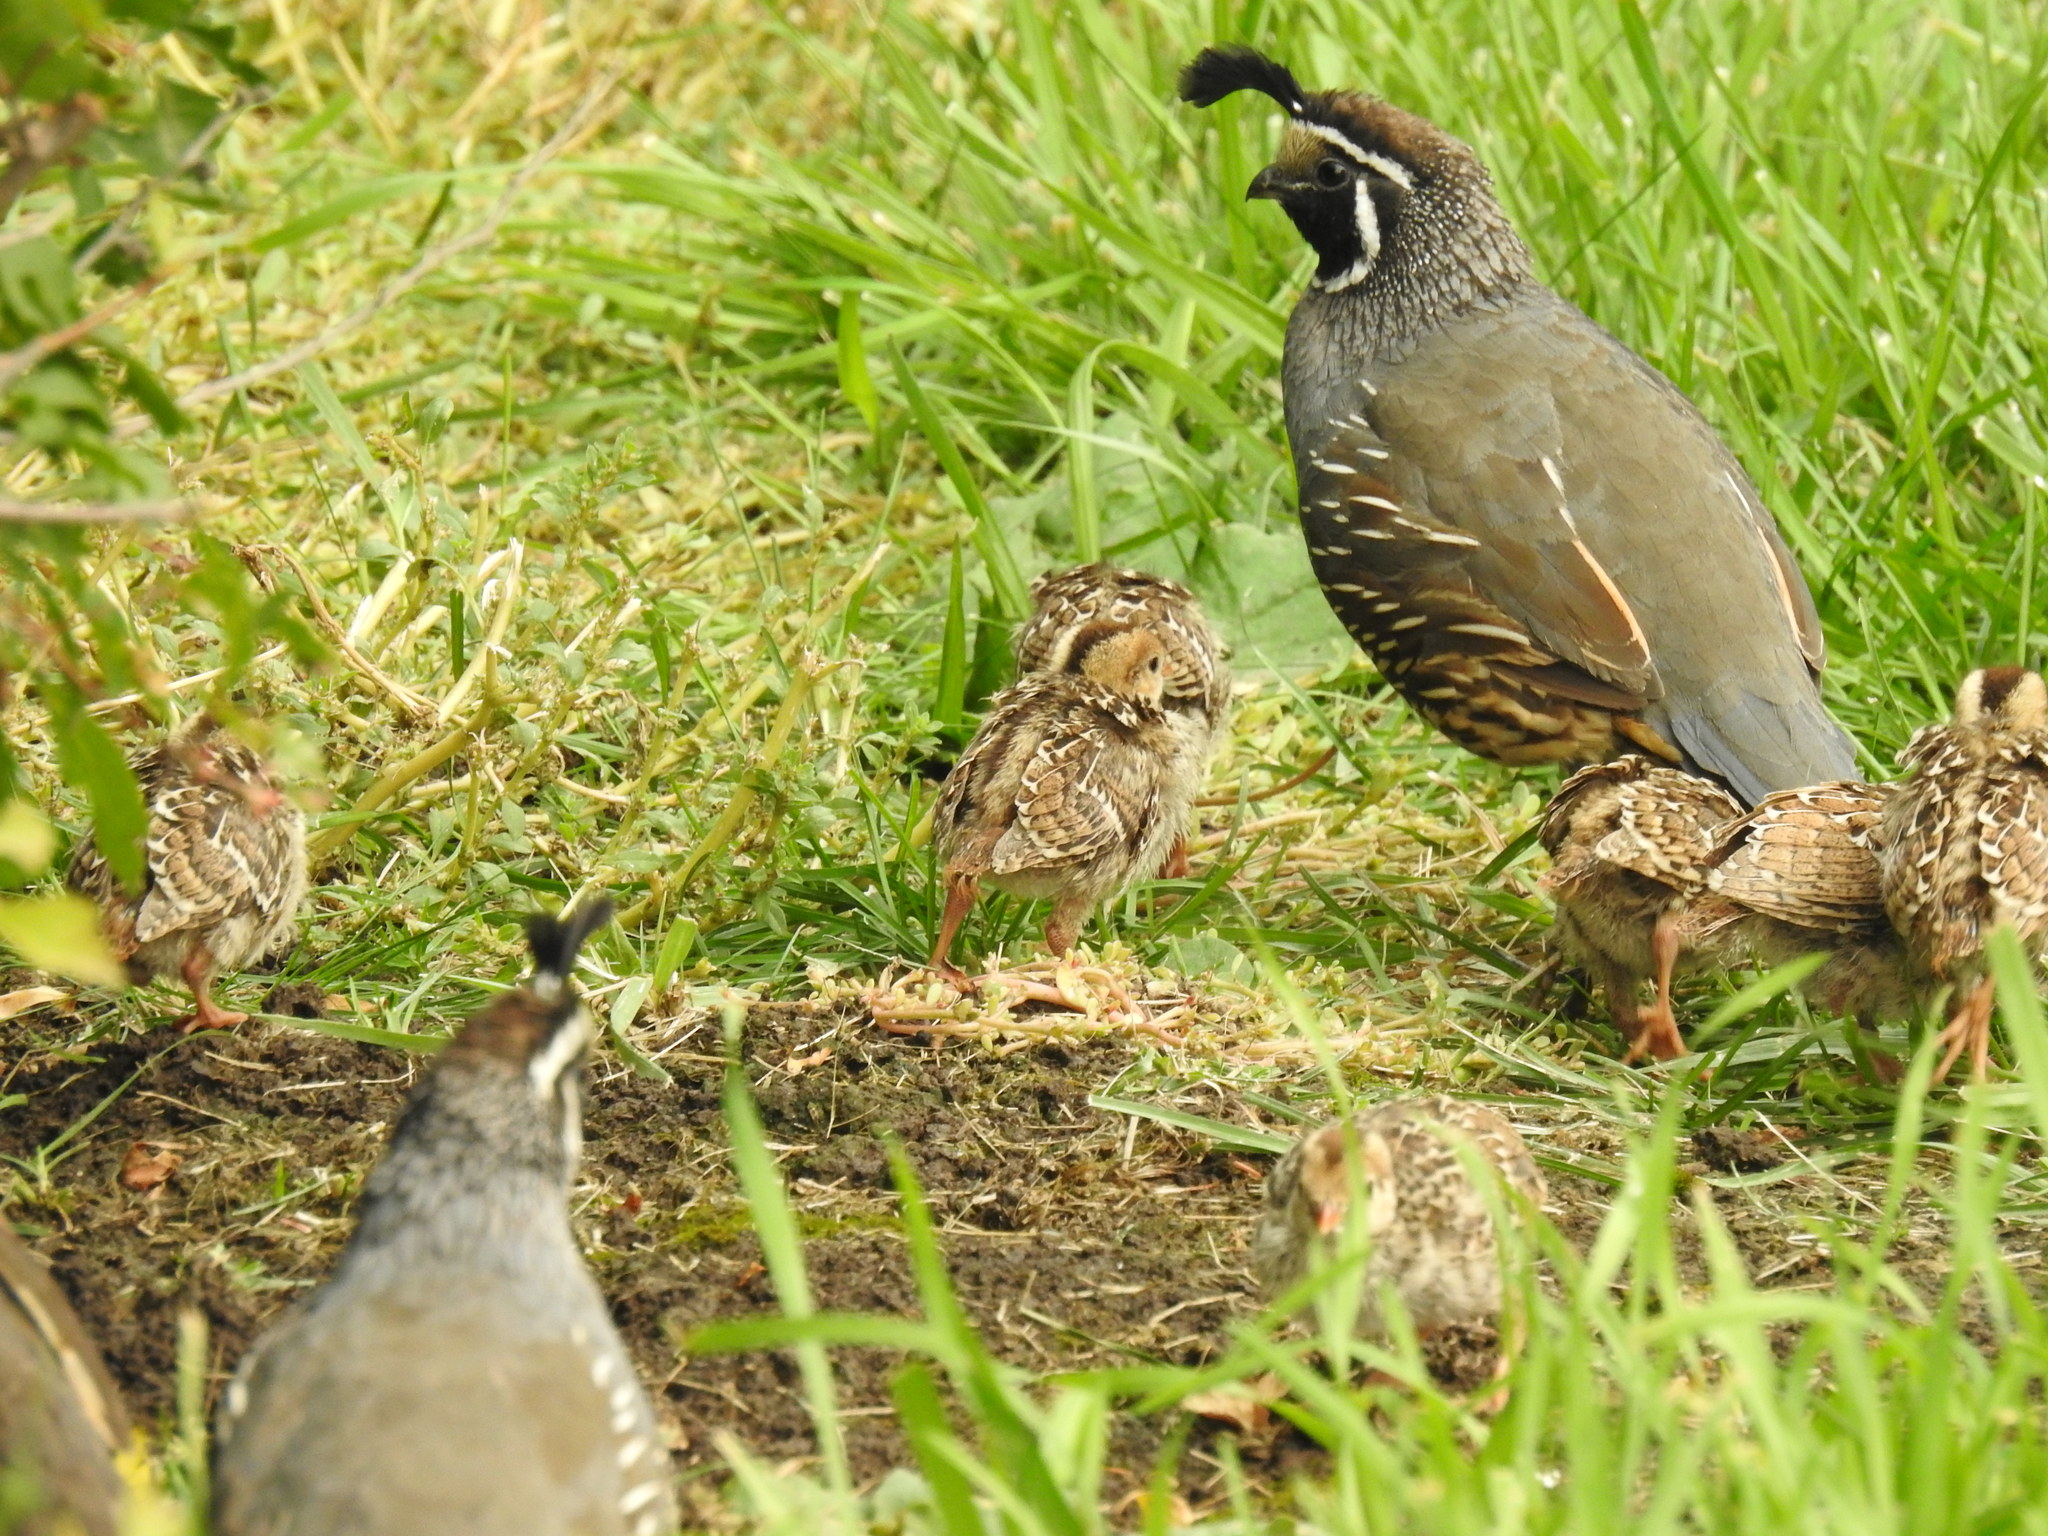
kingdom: Animalia
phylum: Chordata
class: Aves
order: Galliformes
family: Odontophoridae
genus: Callipepla
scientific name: Callipepla californica
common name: California quail
